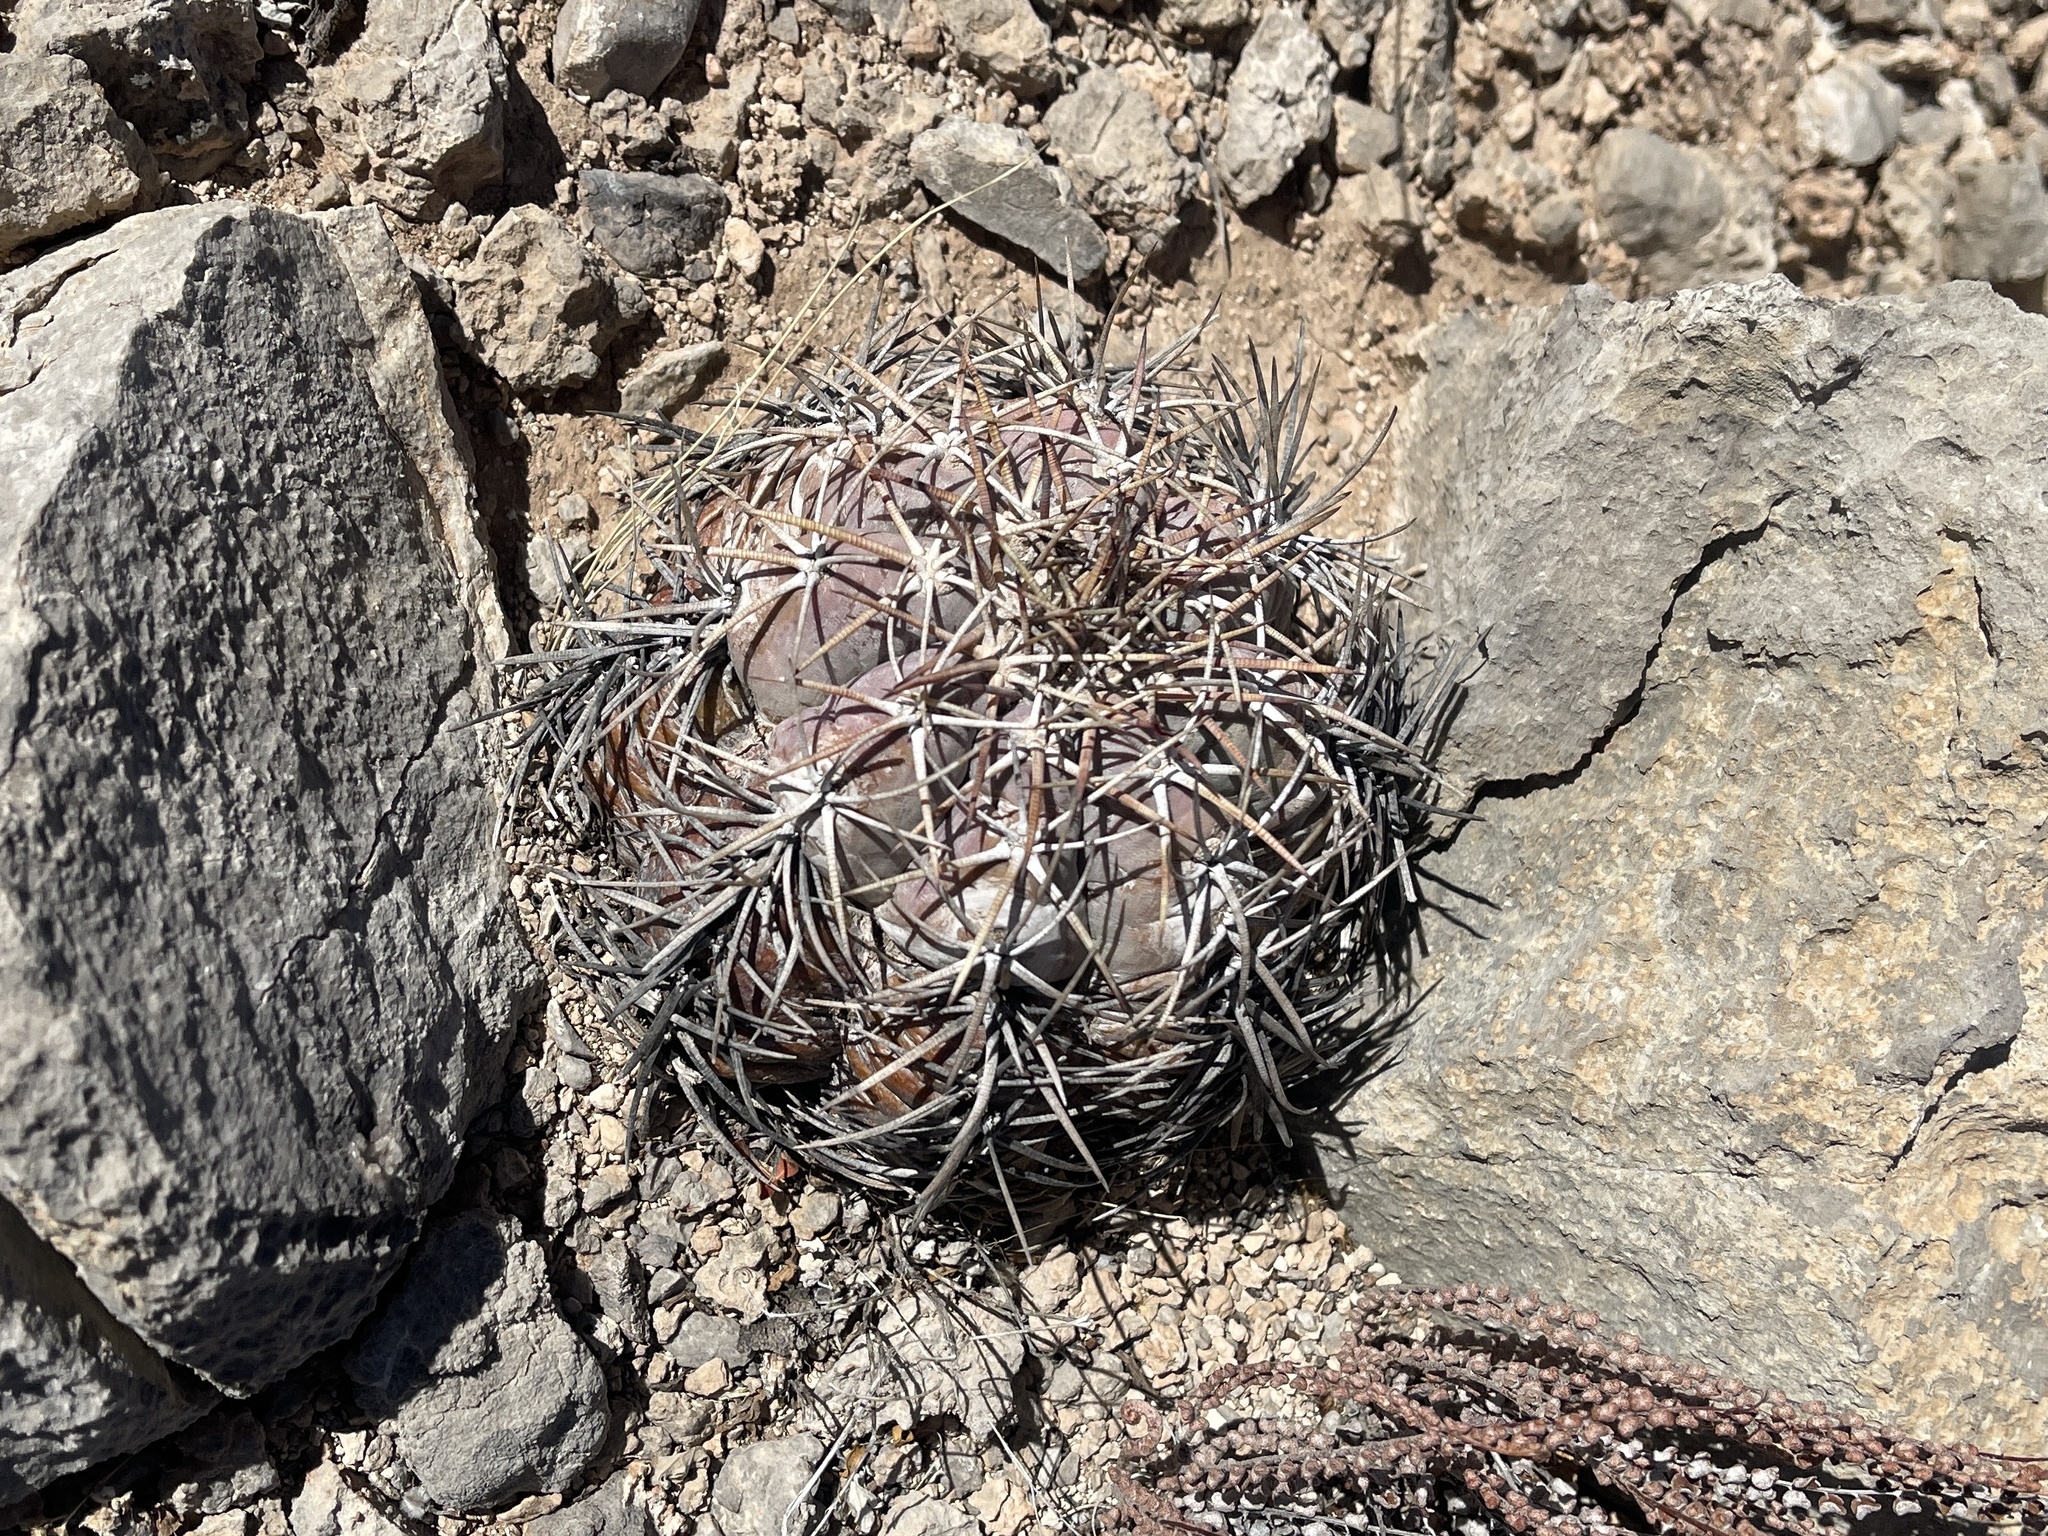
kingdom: Plantae
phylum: Tracheophyta
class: Magnoliopsida
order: Caryophyllales
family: Cactaceae
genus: Echinocactus
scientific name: Echinocactus horizonthalonius
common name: Devilshead
